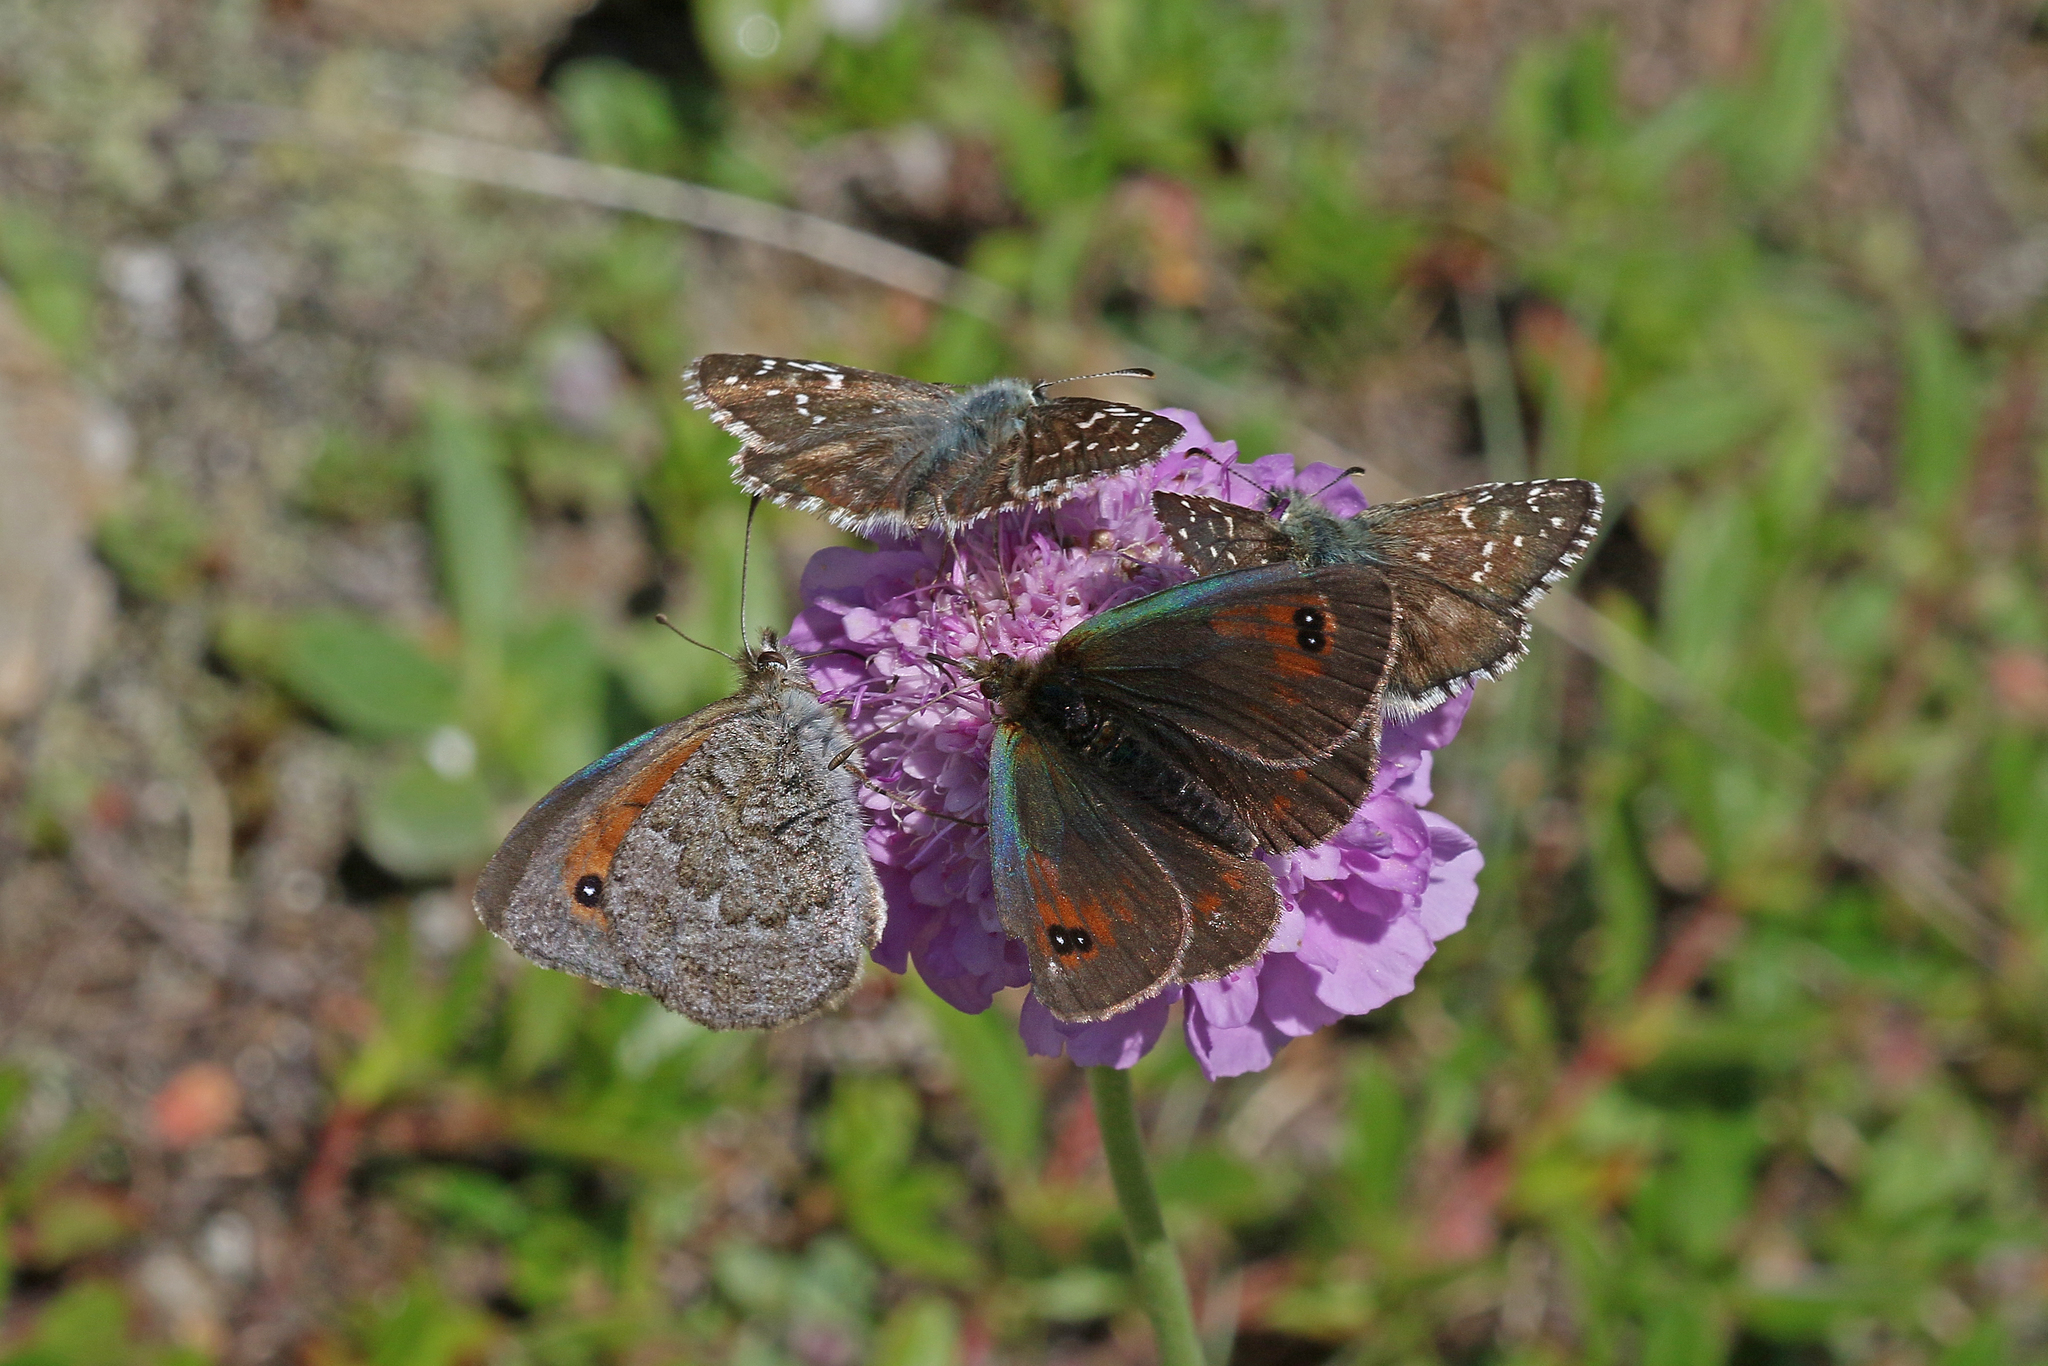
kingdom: Animalia
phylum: Arthropoda
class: Insecta
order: Lepidoptera
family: Nymphalidae
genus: Erebia
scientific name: Erebia cassioides
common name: Common brassy ringlet
